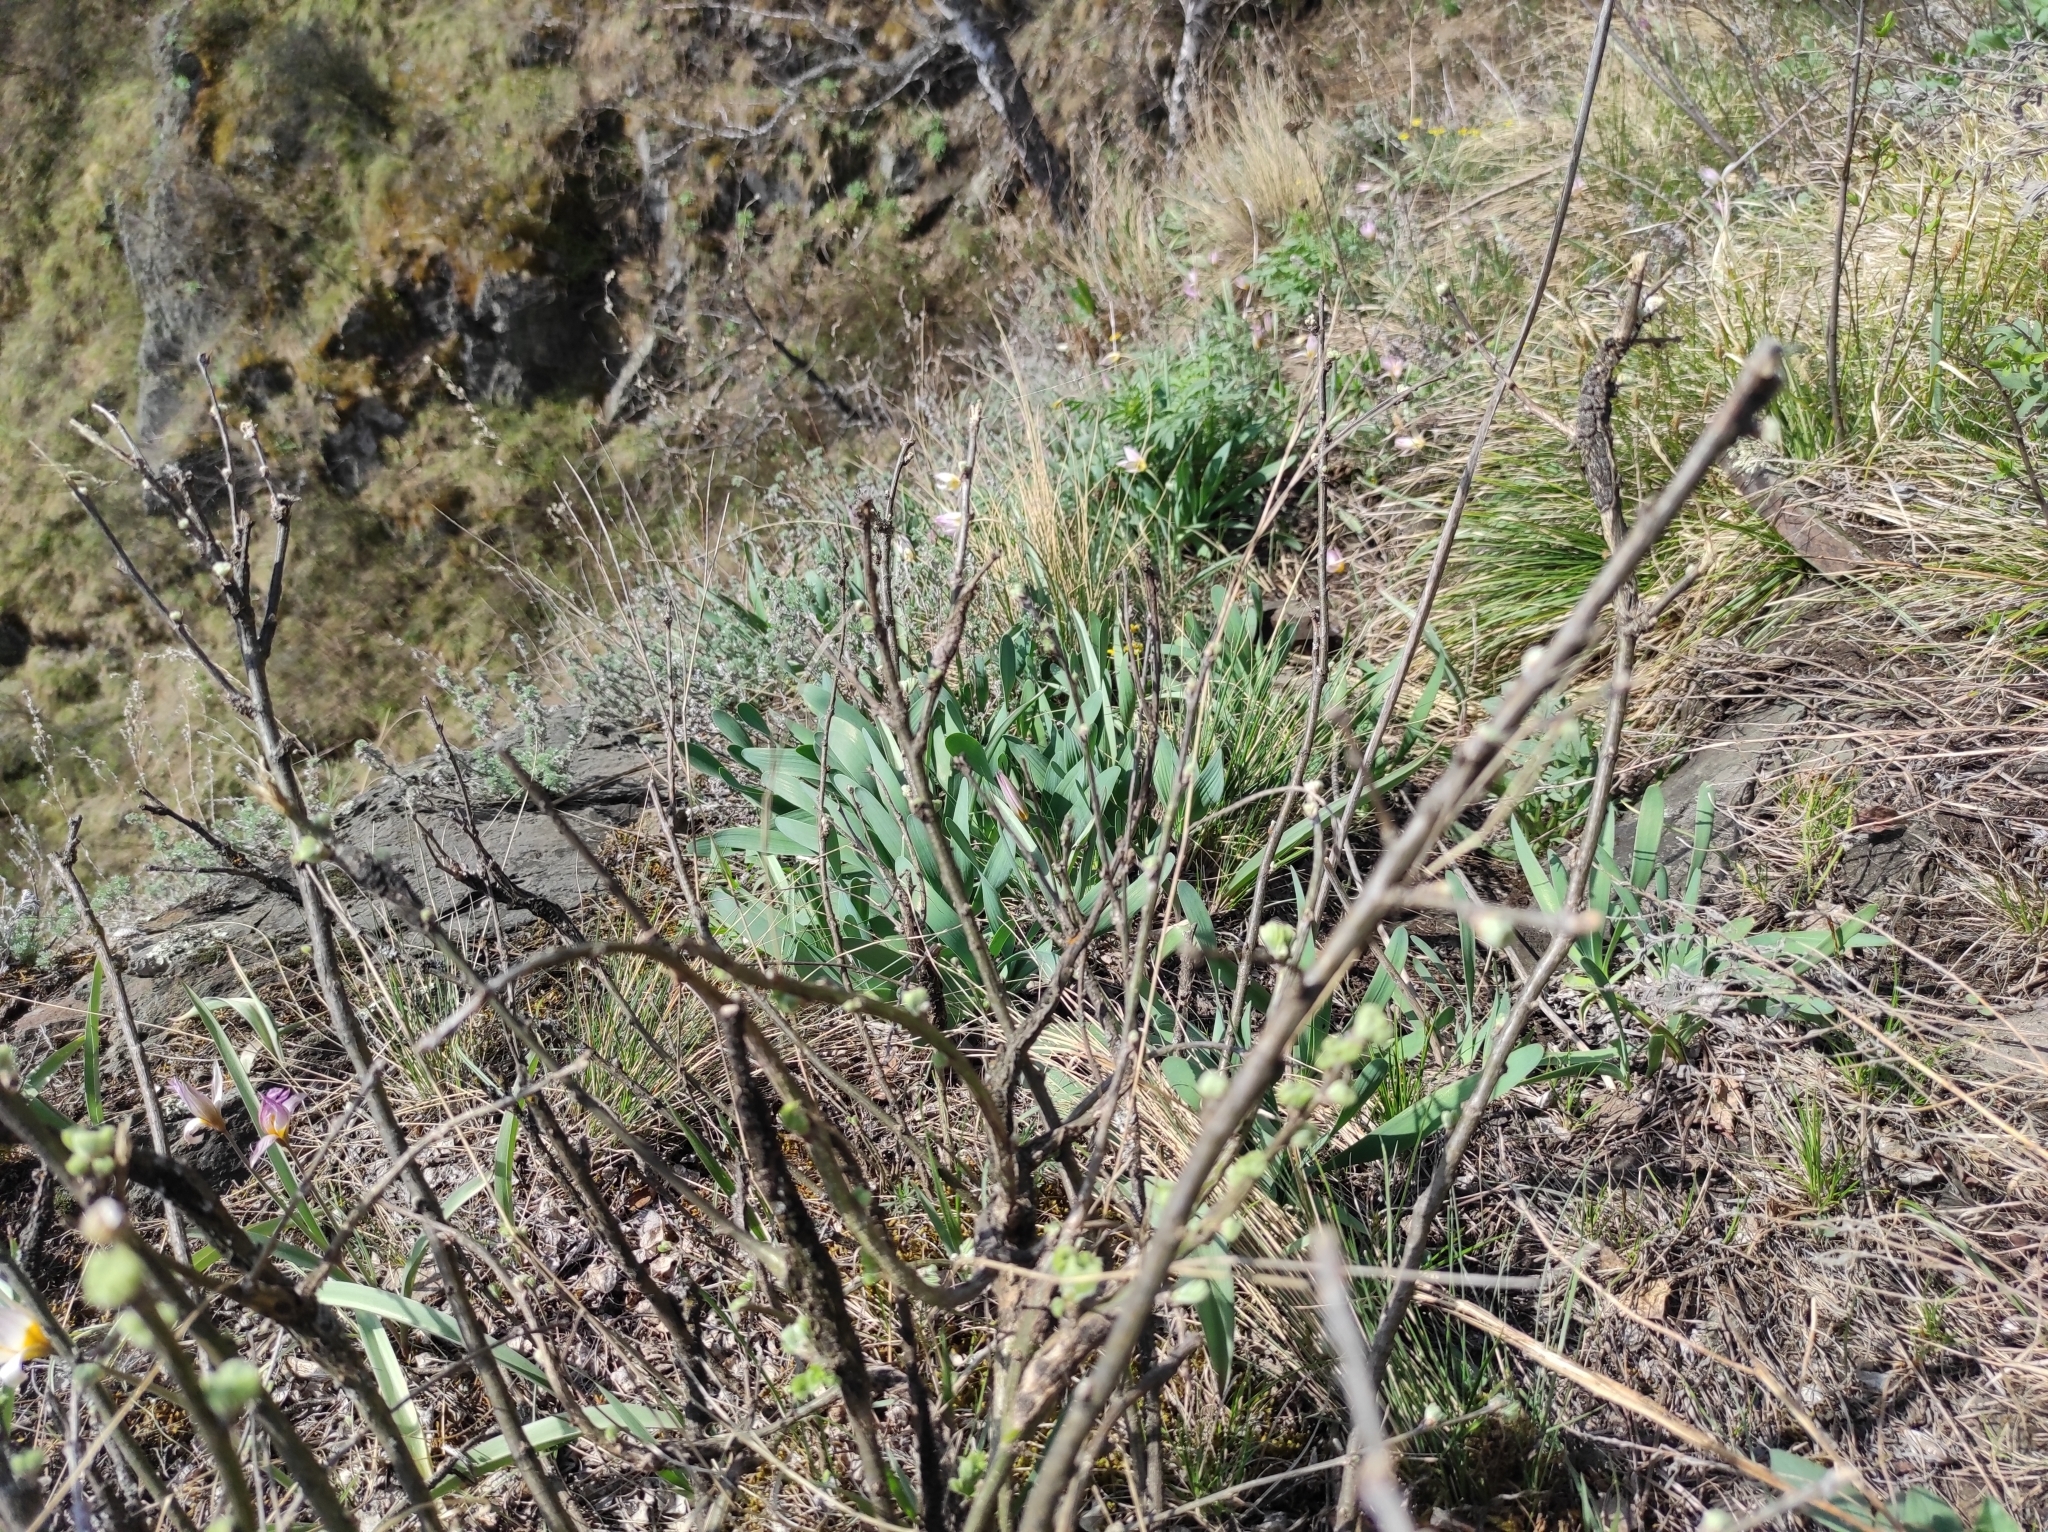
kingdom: Plantae
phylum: Tracheophyta
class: Liliopsida
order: Liliales
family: Liliaceae
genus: Tulipa
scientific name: Tulipa patens
